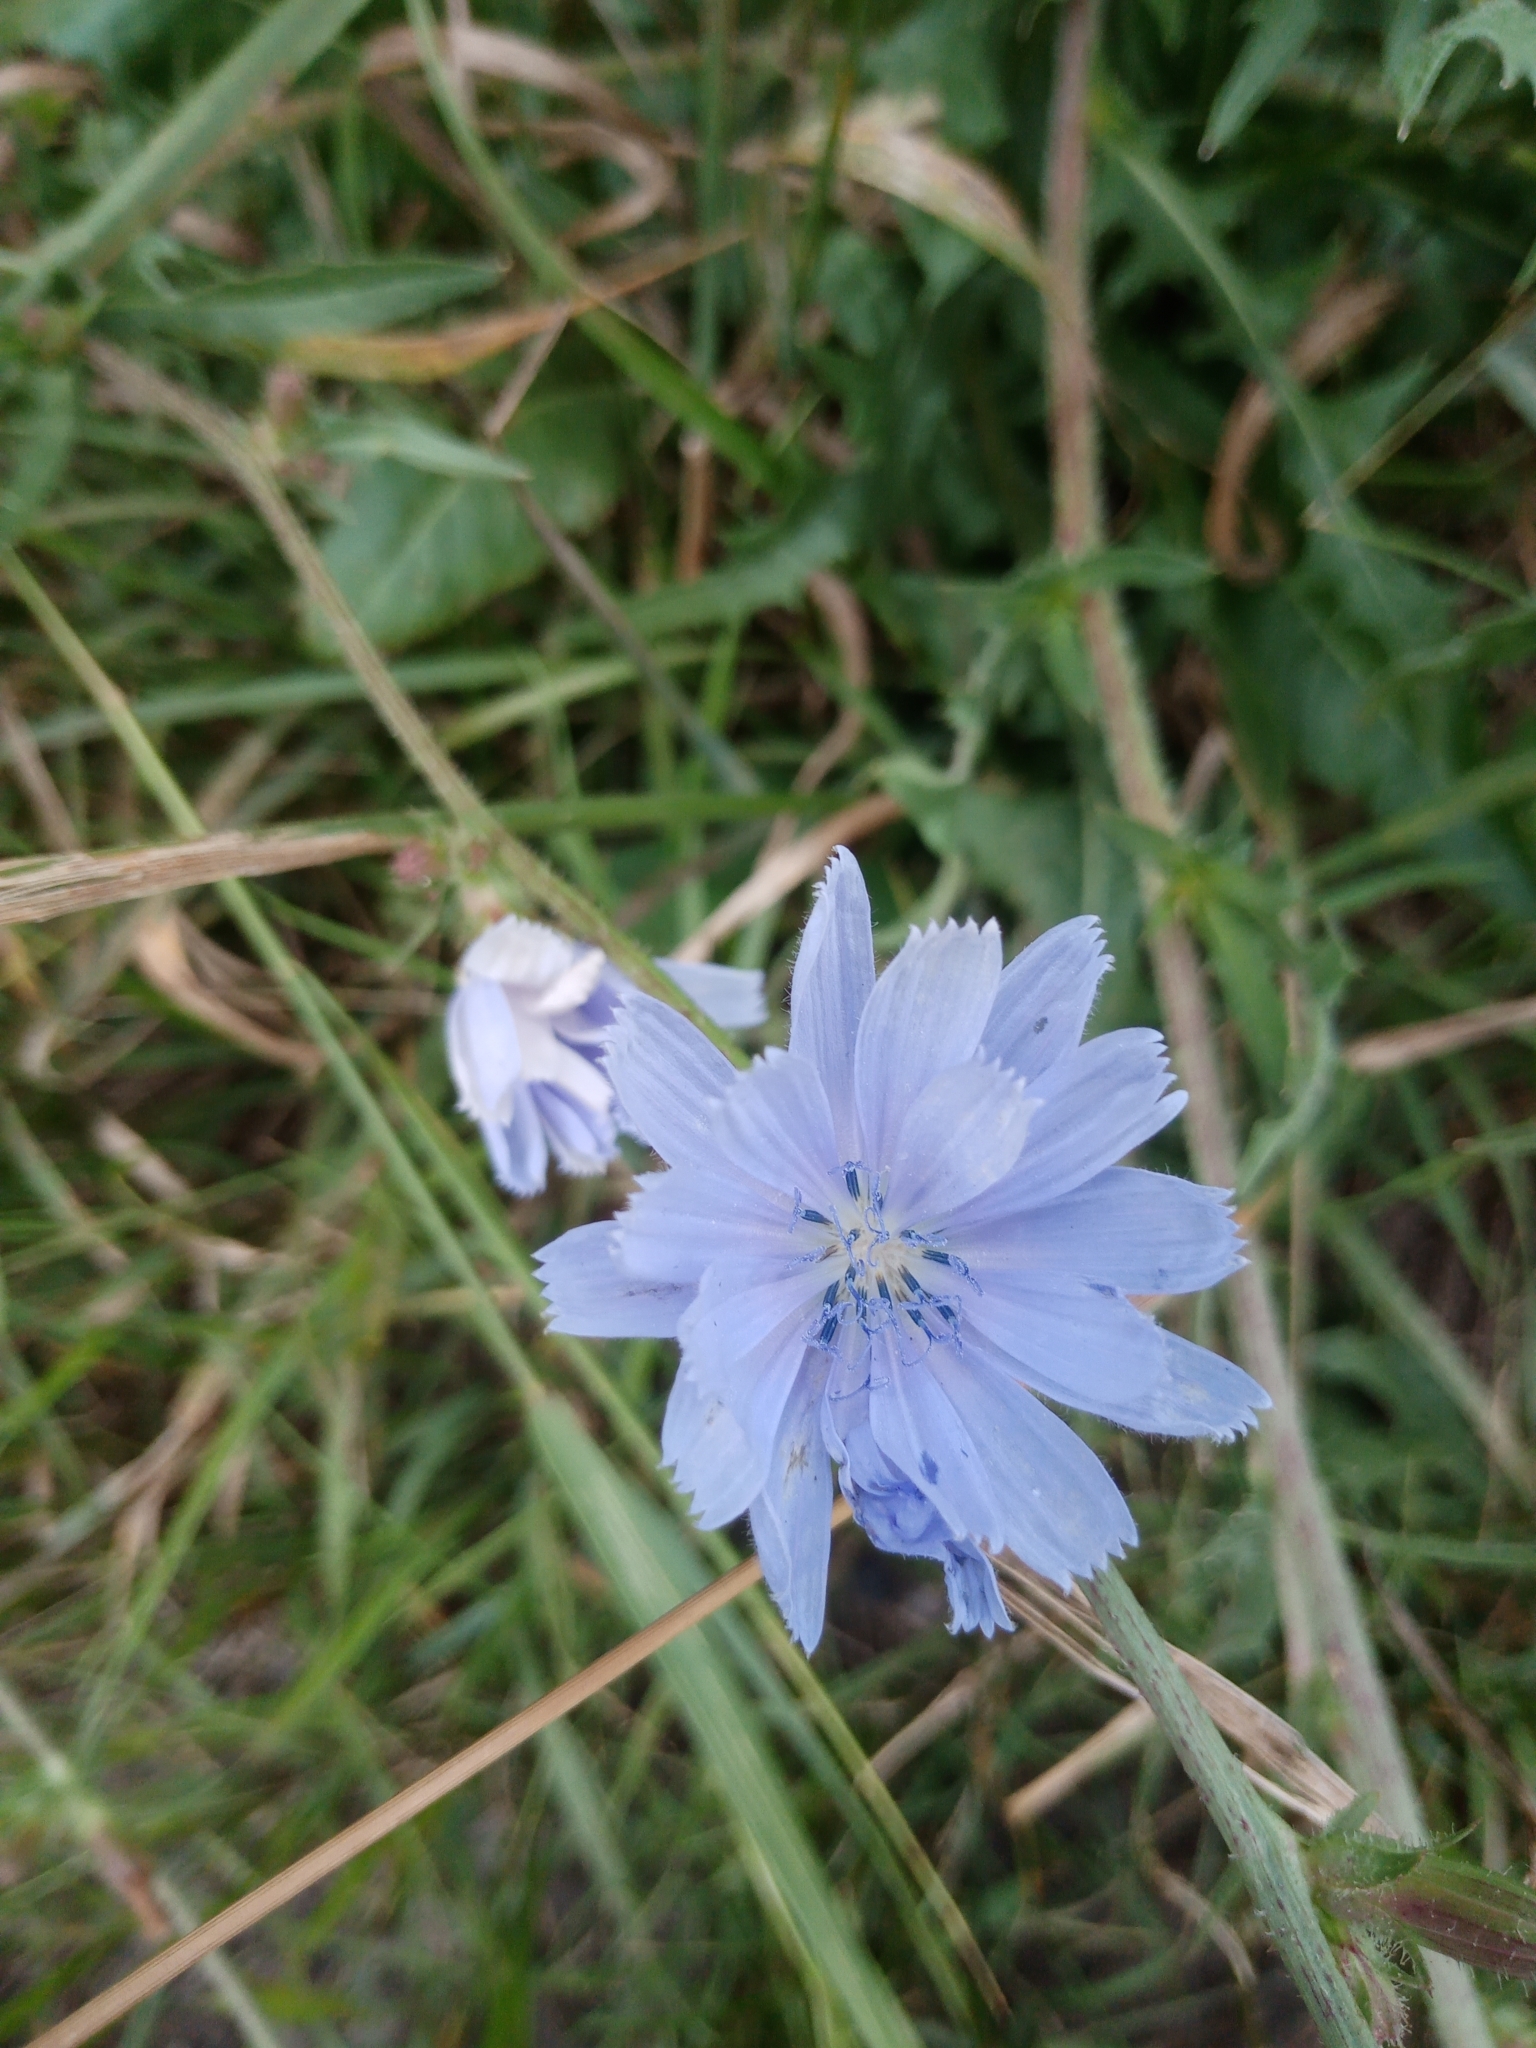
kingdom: Plantae
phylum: Tracheophyta
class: Magnoliopsida
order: Asterales
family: Asteraceae
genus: Cichorium
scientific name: Cichorium intybus
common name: Chicory
